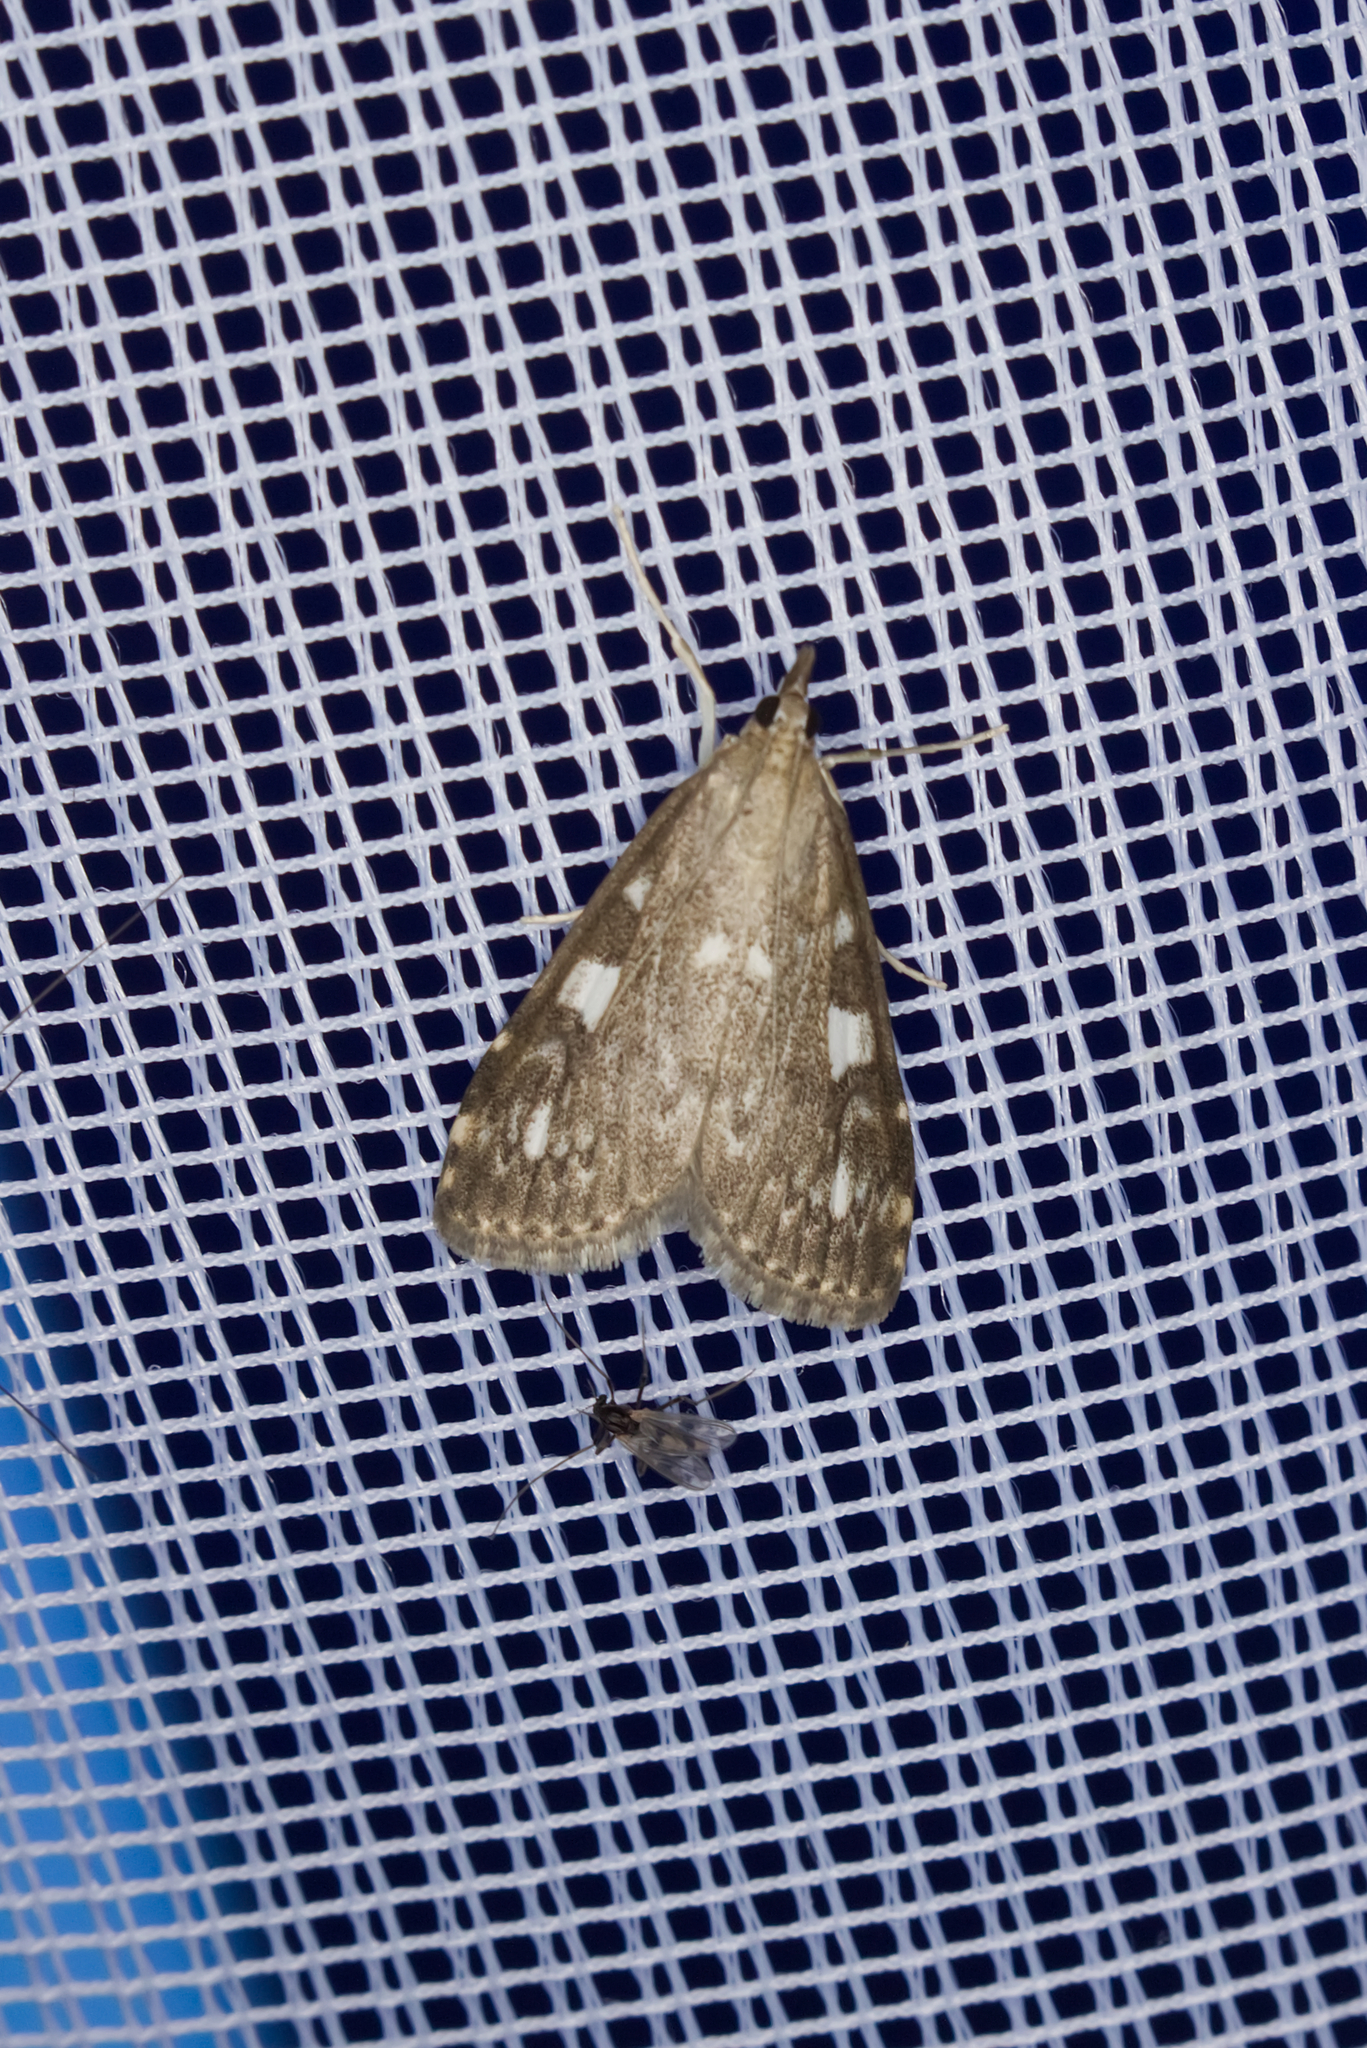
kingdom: Animalia
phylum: Arthropoda
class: Insecta
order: Lepidoptera
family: Crambidae
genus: Udea
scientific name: Udea olivalis
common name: Olive pearl
